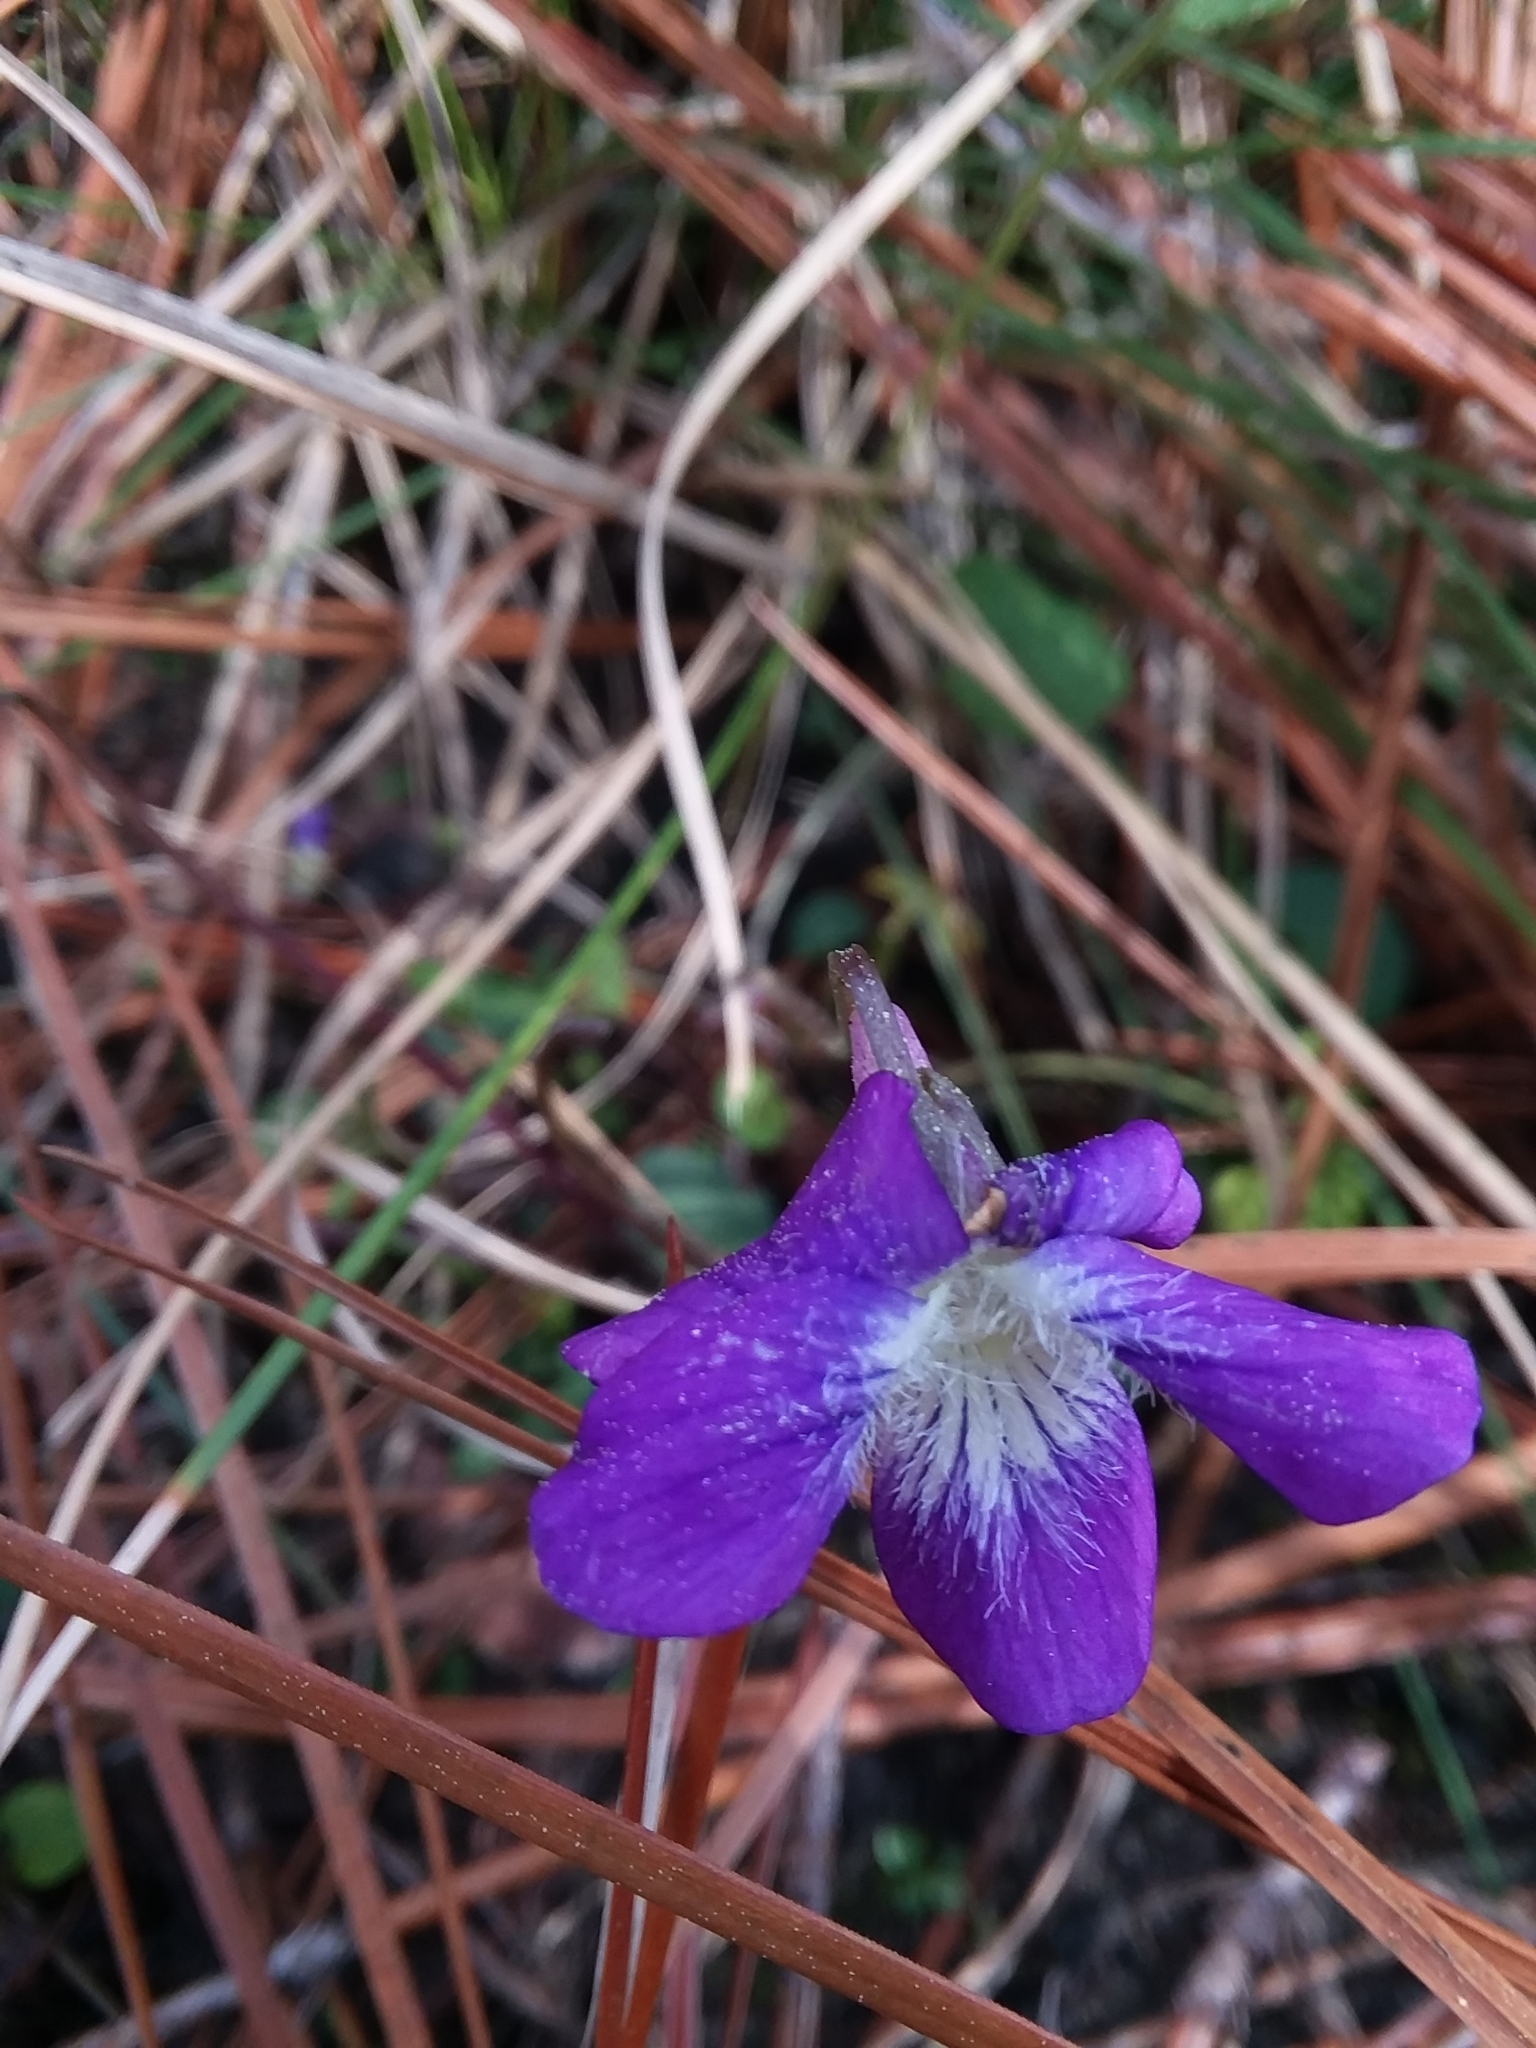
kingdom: Plantae
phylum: Tracheophyta
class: Magnoliopsida
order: Malpighiales
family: Violaceae
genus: Viola
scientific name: Viola septemloba
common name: Southern coast violet
